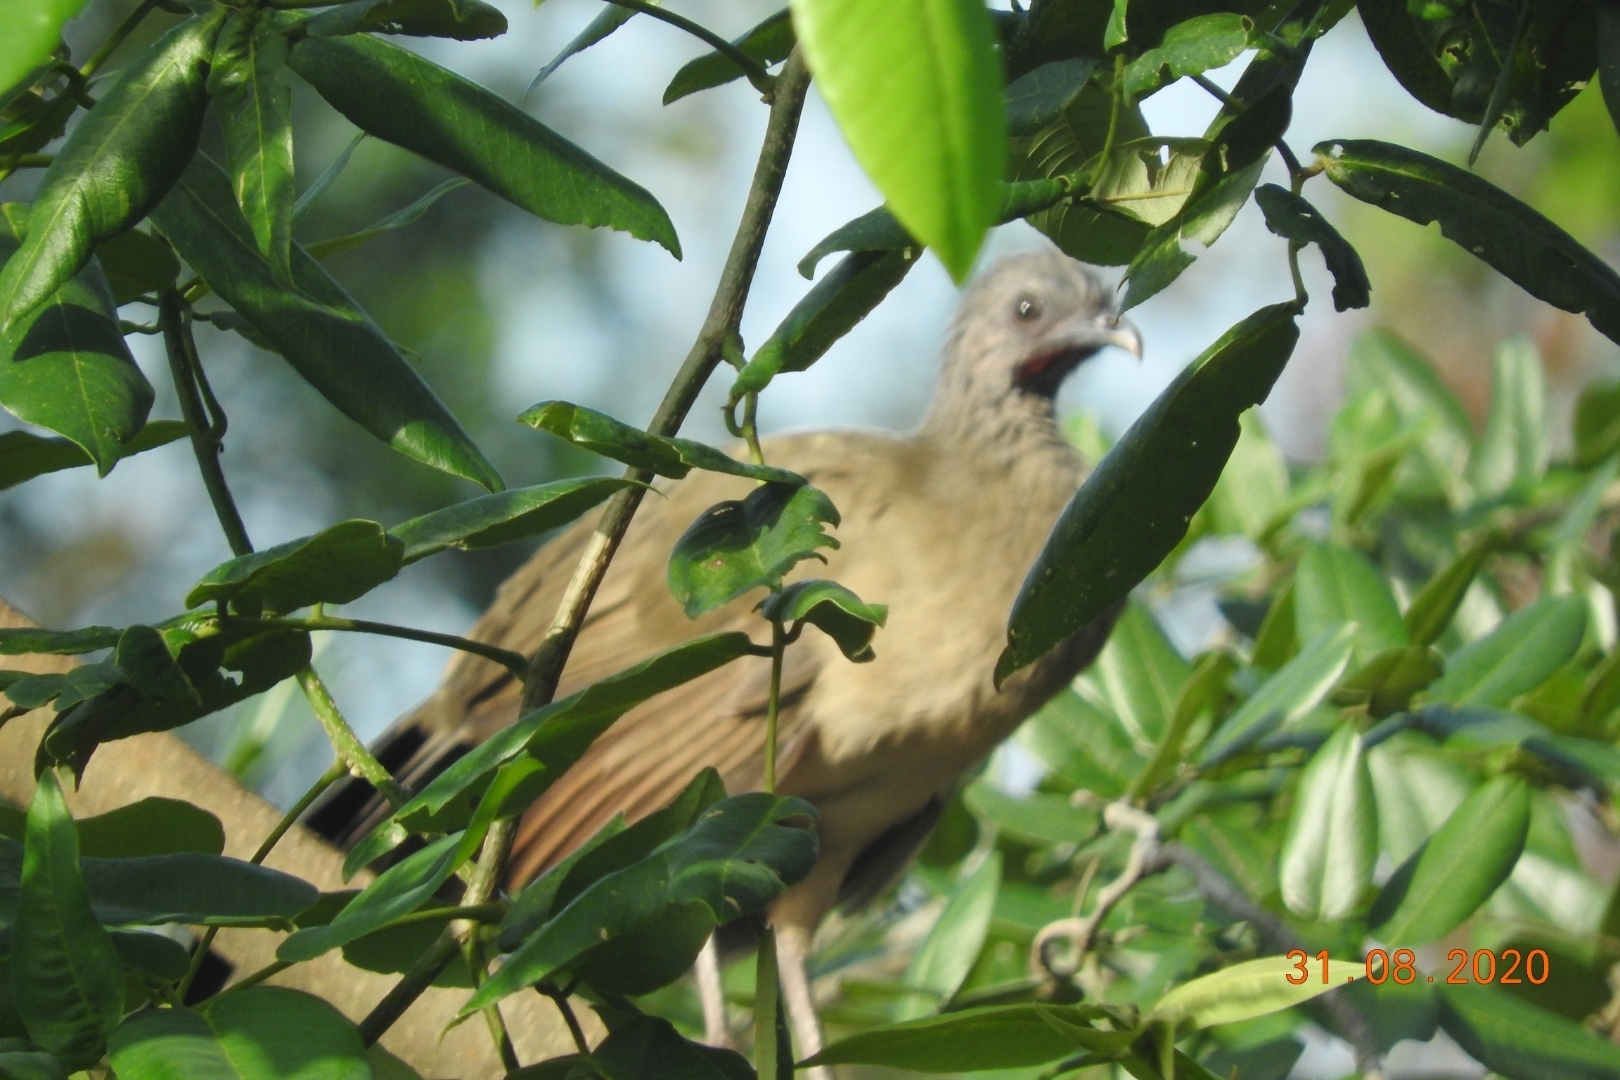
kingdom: Animalia
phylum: Chordata
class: Aves
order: Galliformes
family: Cracidae
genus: Ortalis
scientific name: Ortalis vetula
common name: Plain chachalaca
